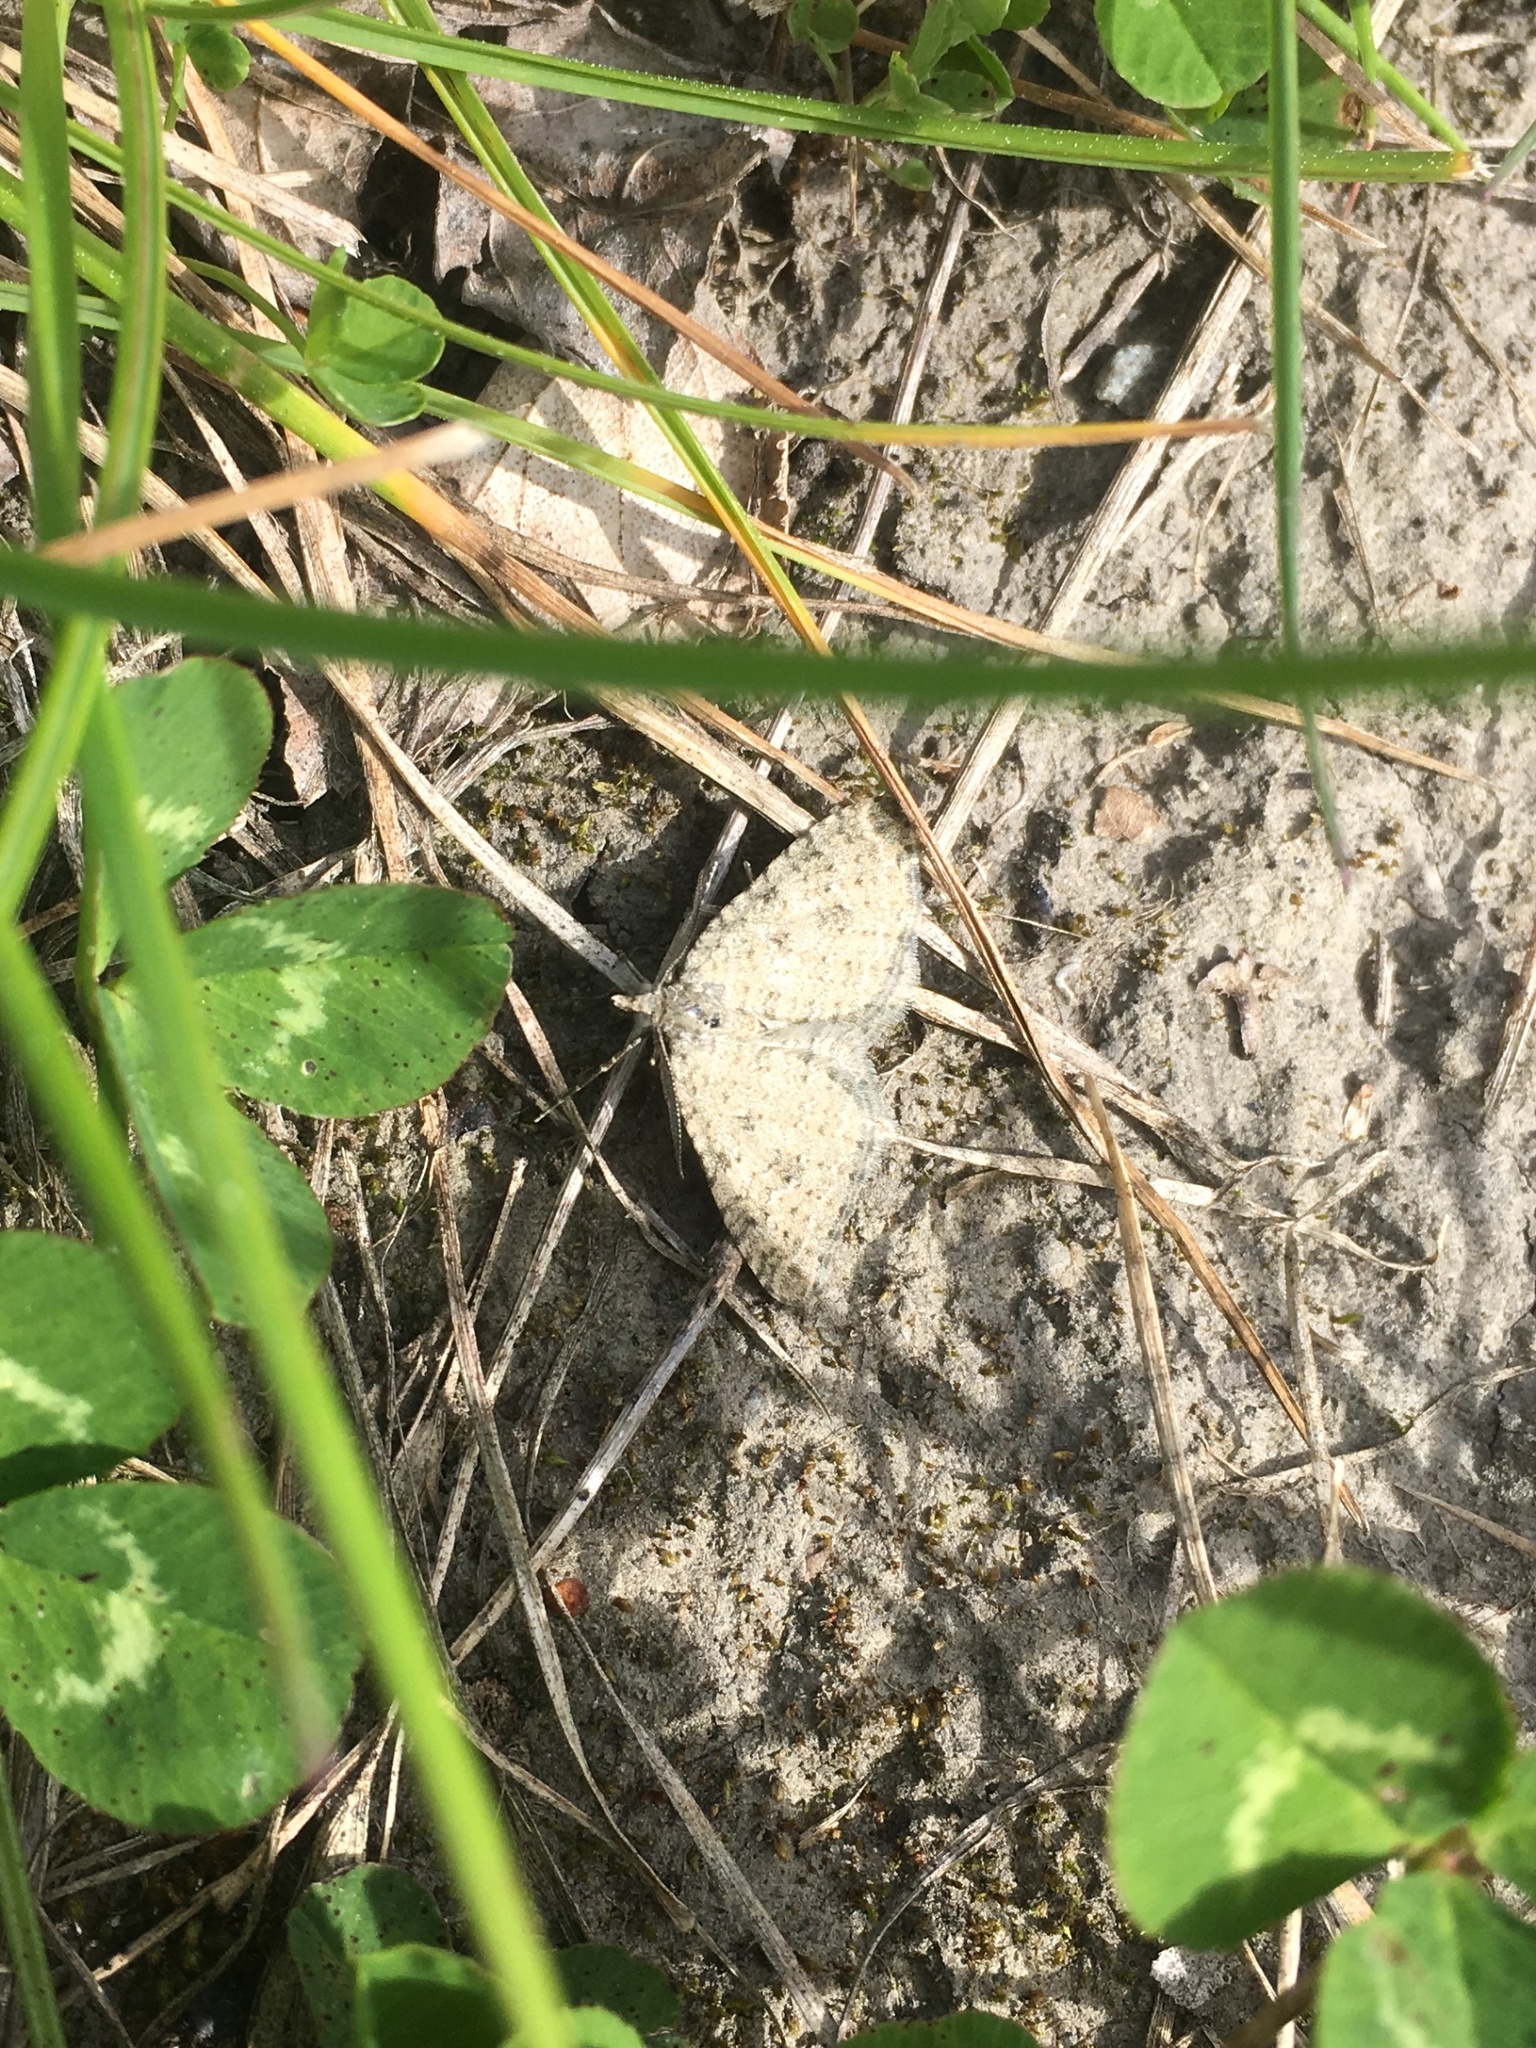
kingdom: Animalia
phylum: Arthropoda
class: Insecta
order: Lepidoptera
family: Geometridae
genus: Helastia
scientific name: Helastia corcularia
